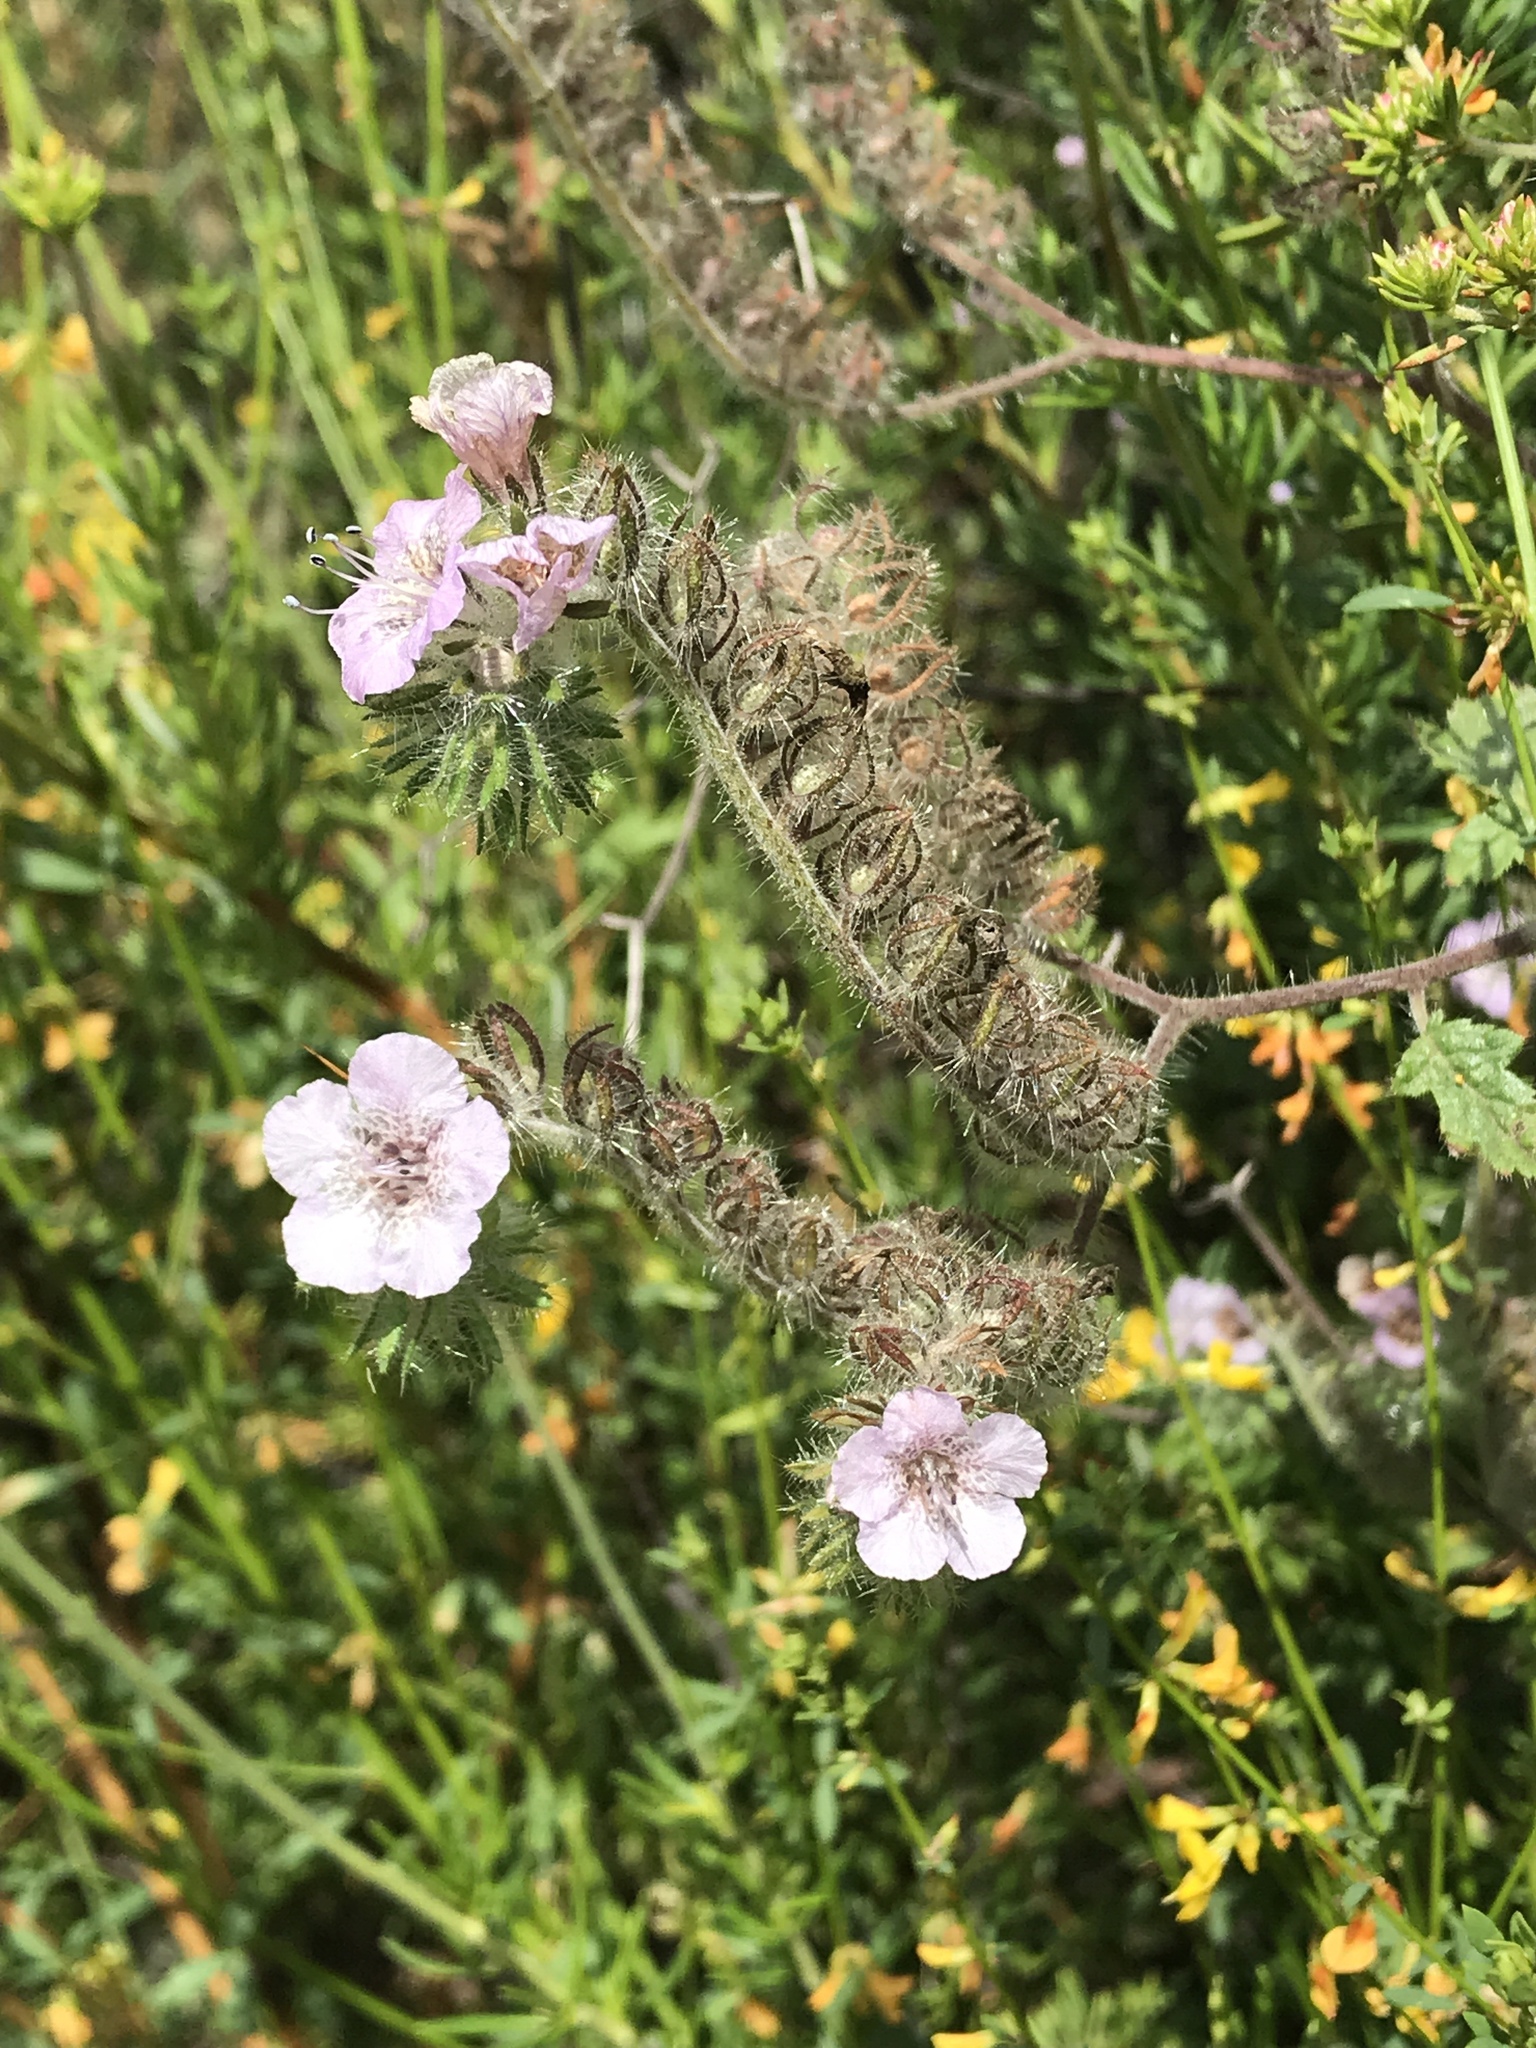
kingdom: Plantae
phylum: Tracheophyta
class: Magnoliopsida
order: Boraginales
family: Hydrophyllaceae
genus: Phacelia
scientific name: Phacelia cicutaria
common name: Caterpillar phacelia
